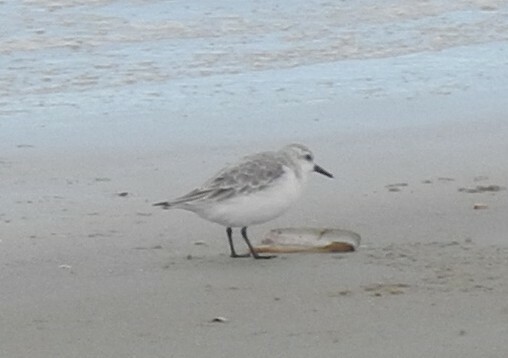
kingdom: Animalia
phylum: Chordata
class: Aves
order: Charadriiformes
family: Scolopacidae
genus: Calidris
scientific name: Calidris alba
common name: Sanderling
